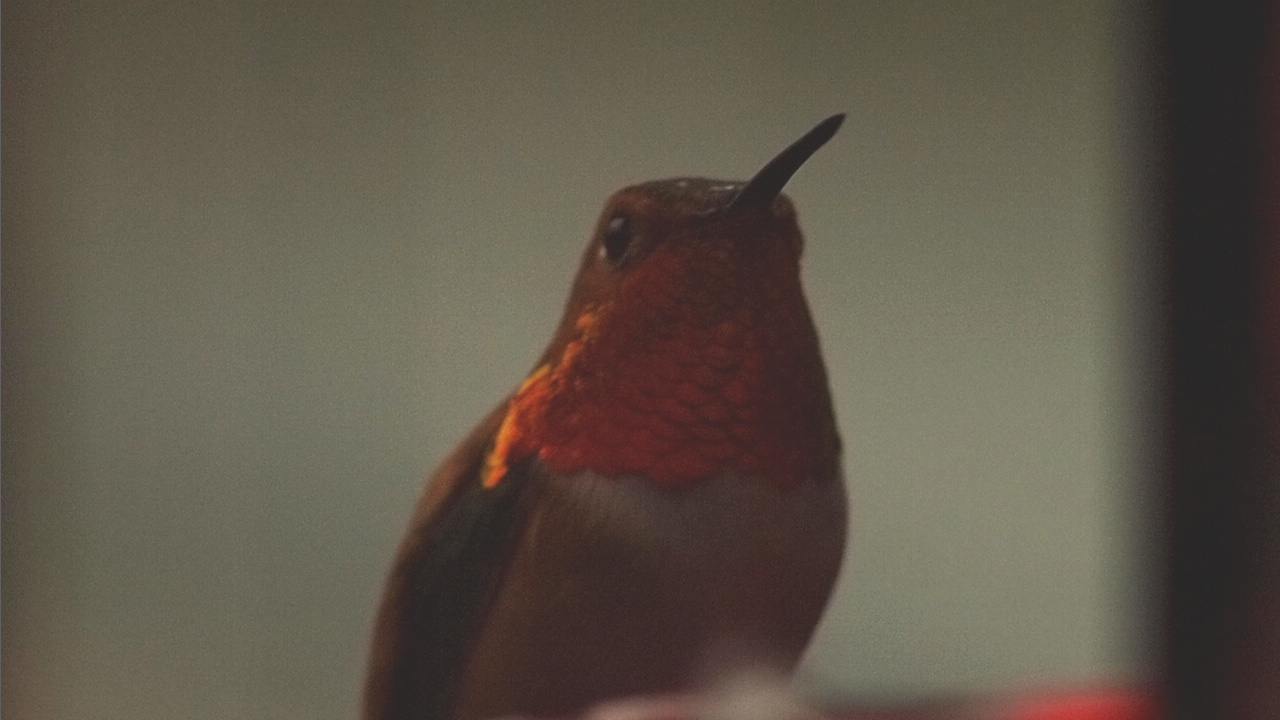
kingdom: Animalia
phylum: Chordata
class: Aves
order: Apodiformes
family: Trochilidae
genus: Selasphorus
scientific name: Selasphorus rufus
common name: Rufous hummingbird
